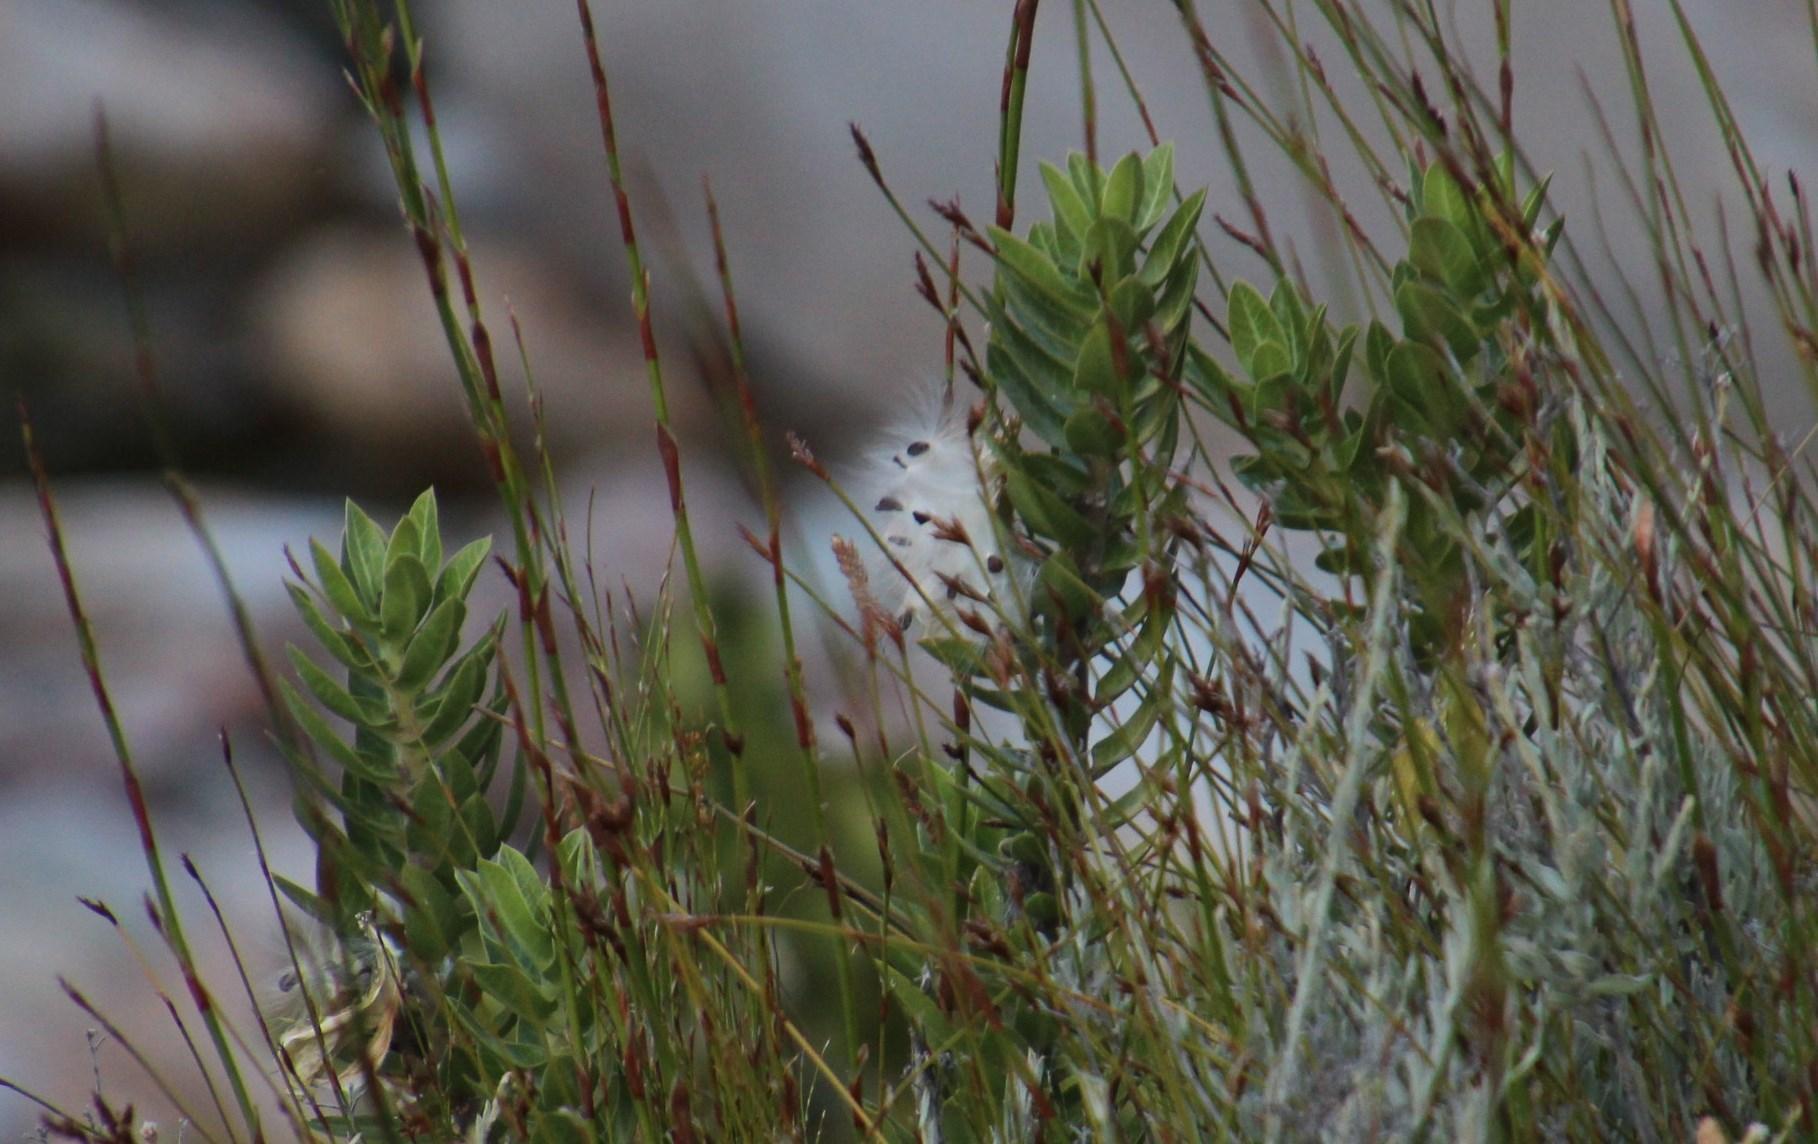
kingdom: Plantae
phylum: Tracheophyta
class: Magnoliopsida
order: Gentianales
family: Apocynaceae
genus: Gomphocarpus
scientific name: Gomphocarpus cancellatus
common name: Wild cotton
